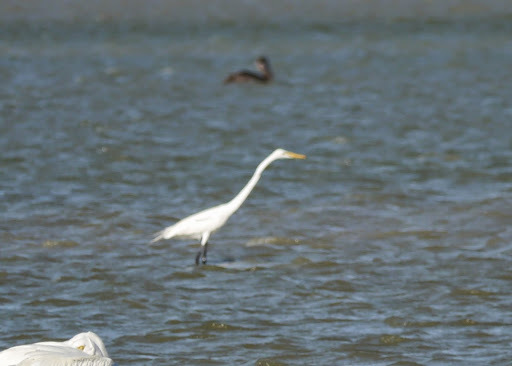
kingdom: Animalia
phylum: Chordata
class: Aves
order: Pelecaniformes
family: Ardeidae
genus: Ardea
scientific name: Ardea alba
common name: Great egret
